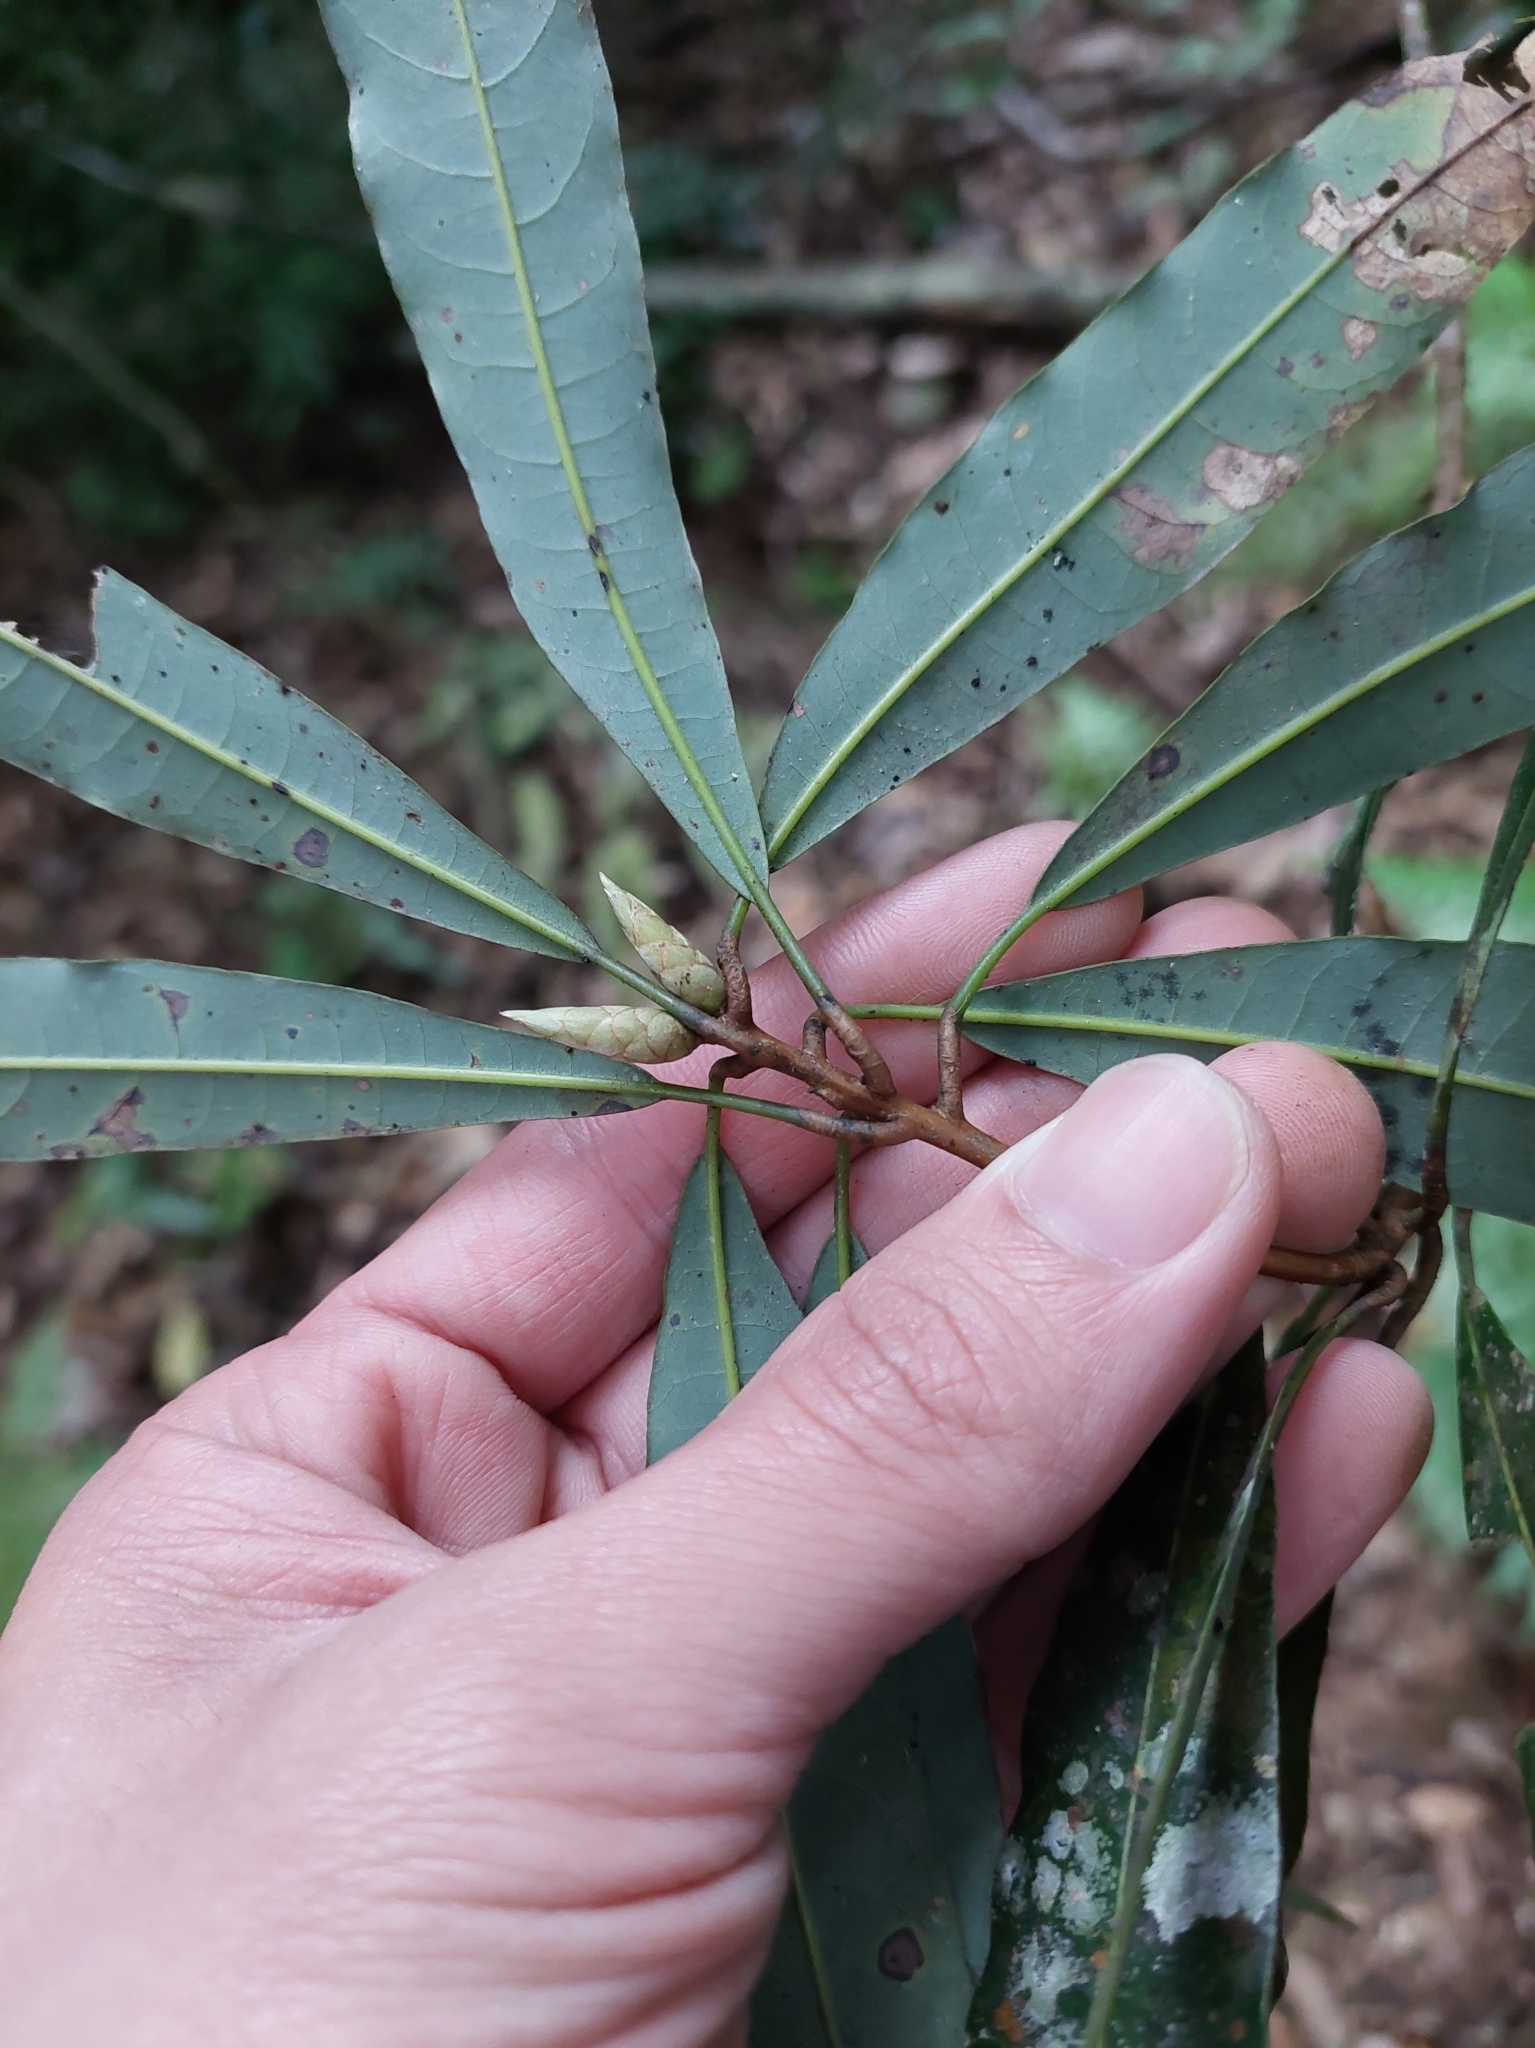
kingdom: Plantae
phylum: Tracheophyta
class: Magnoliopsida
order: Laurales
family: Lauraceae
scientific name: Lauraceae
